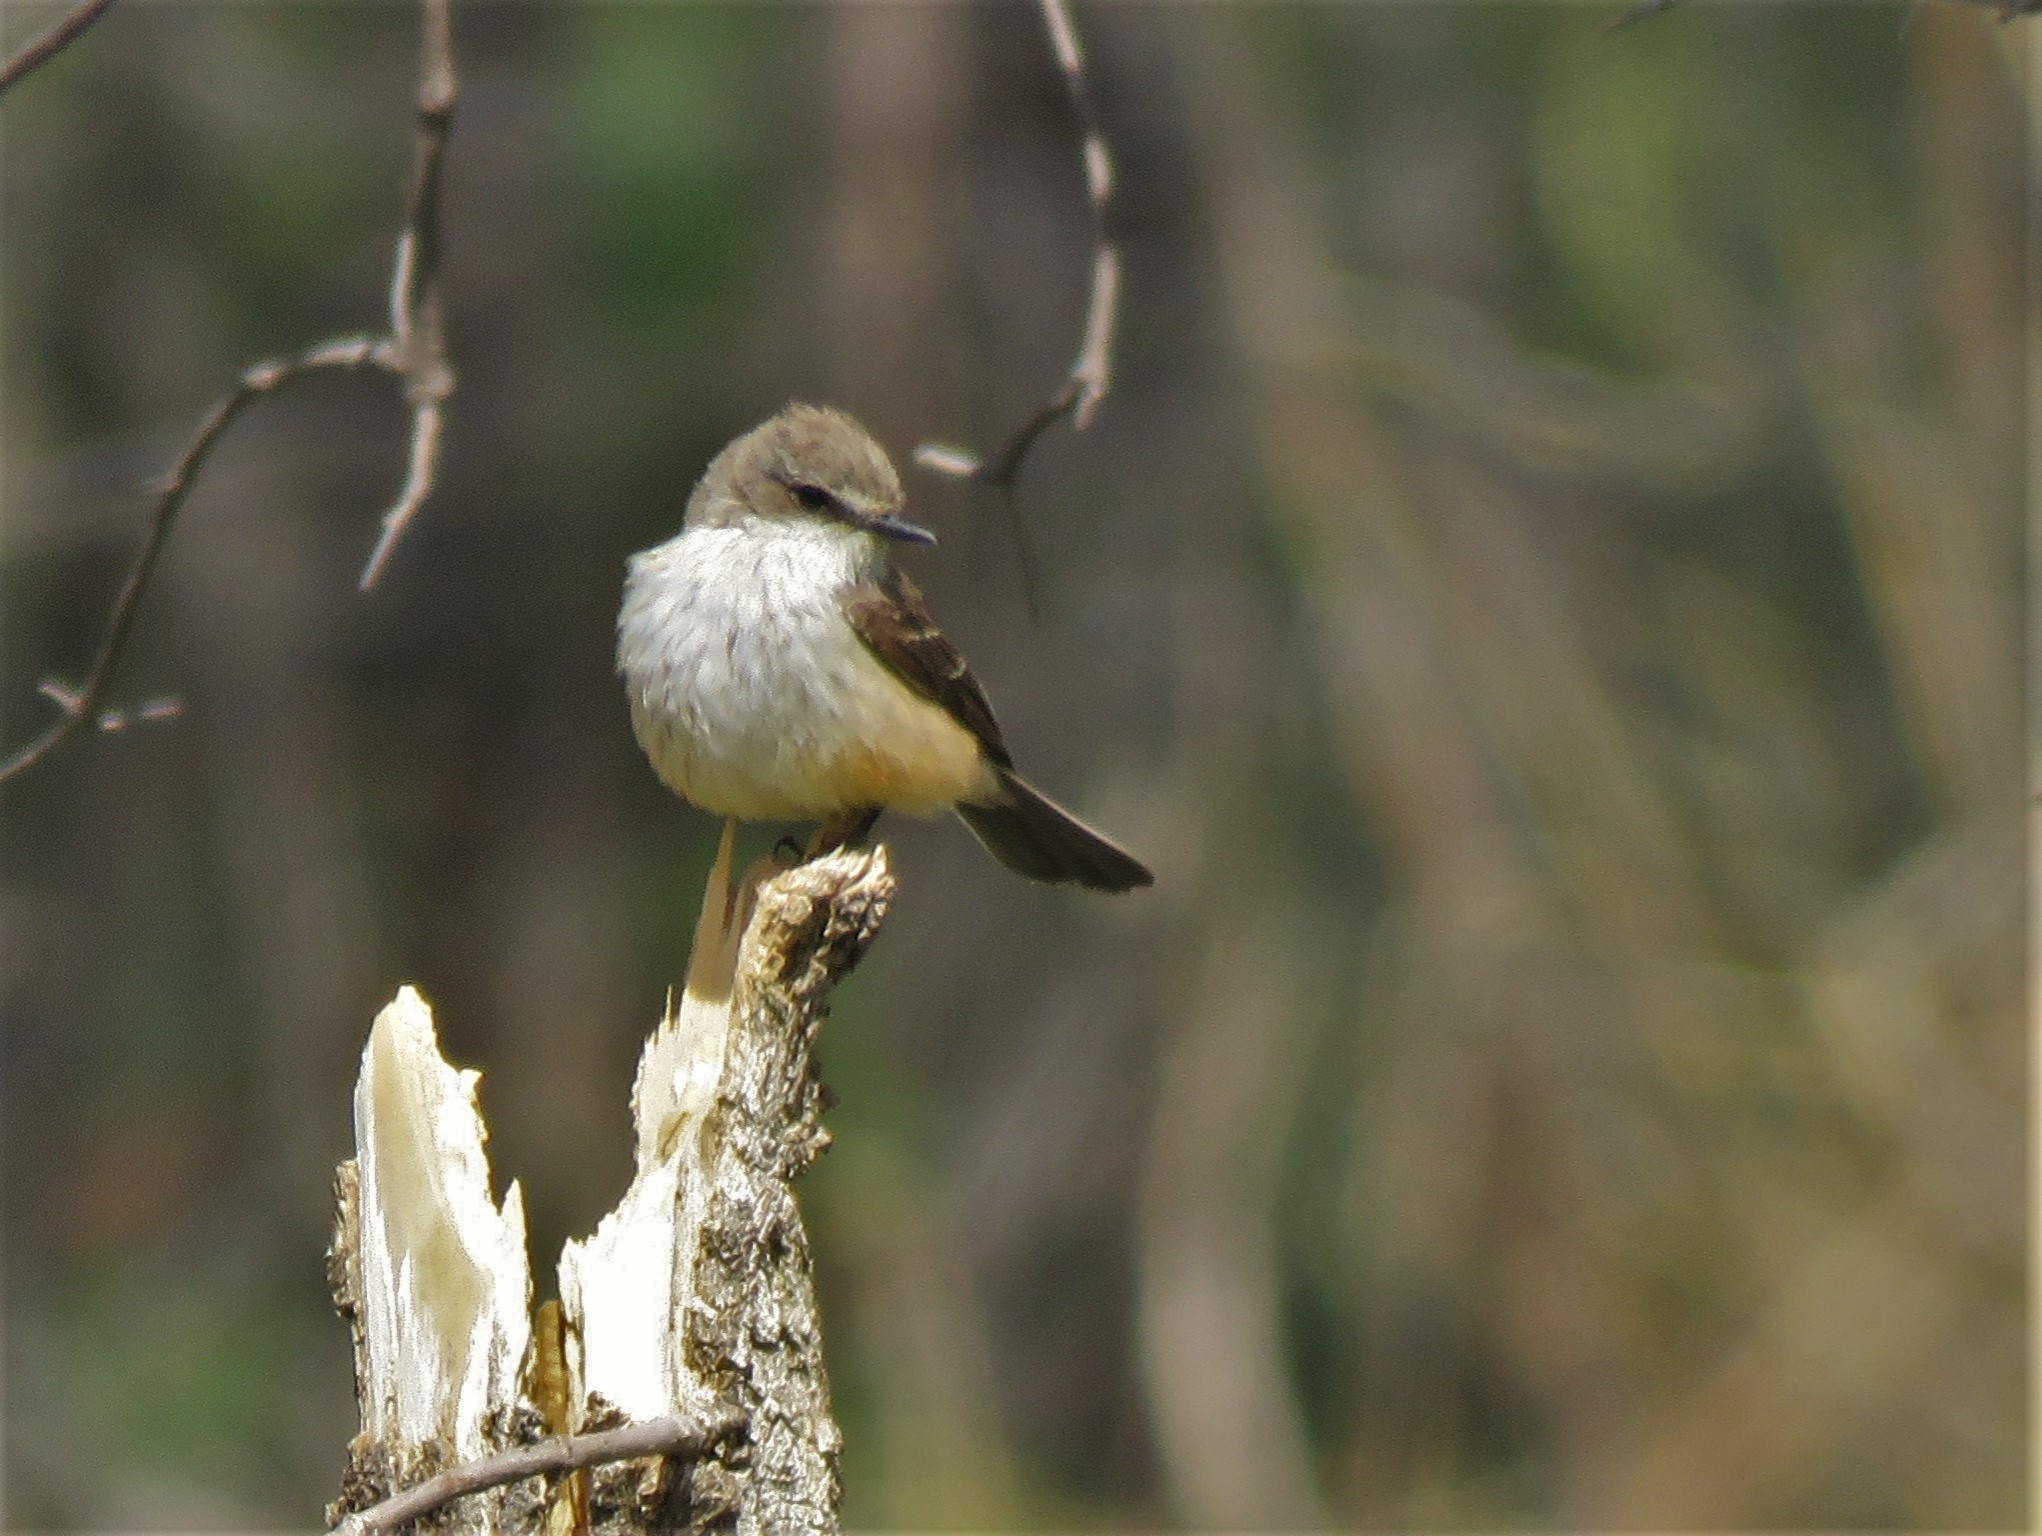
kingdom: Animalia
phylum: Chordata
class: Aves
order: Passeriformes
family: Tyrannidae
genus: Pyrocephalus
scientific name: Pyrocephalus rubinus
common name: Vermilion flycatcher
